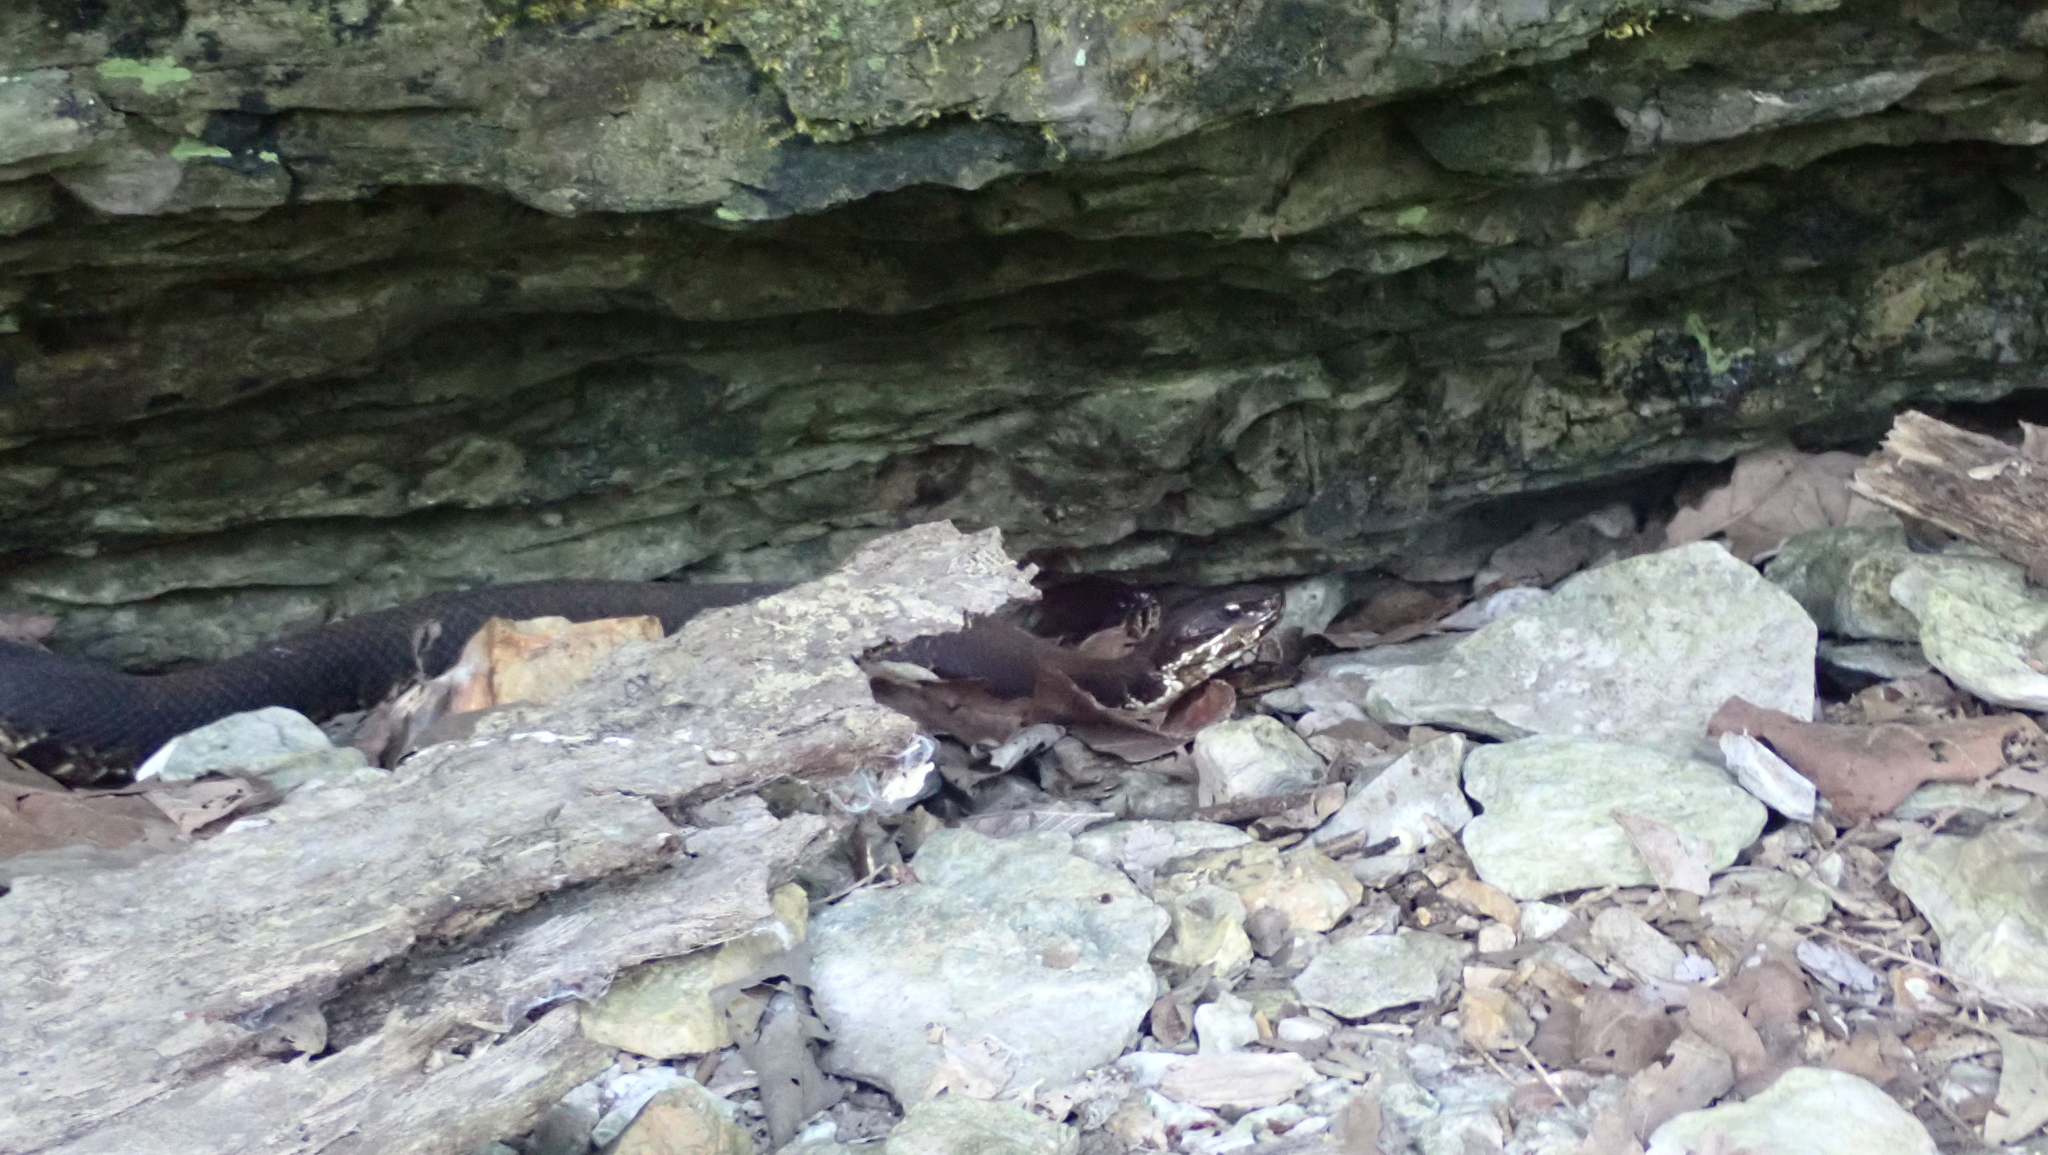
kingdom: Animalia
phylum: Chordata
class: Squamata
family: Viperidae
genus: Agkistrodon
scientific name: Agkistrodon piscivorus
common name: Cottonmouth
